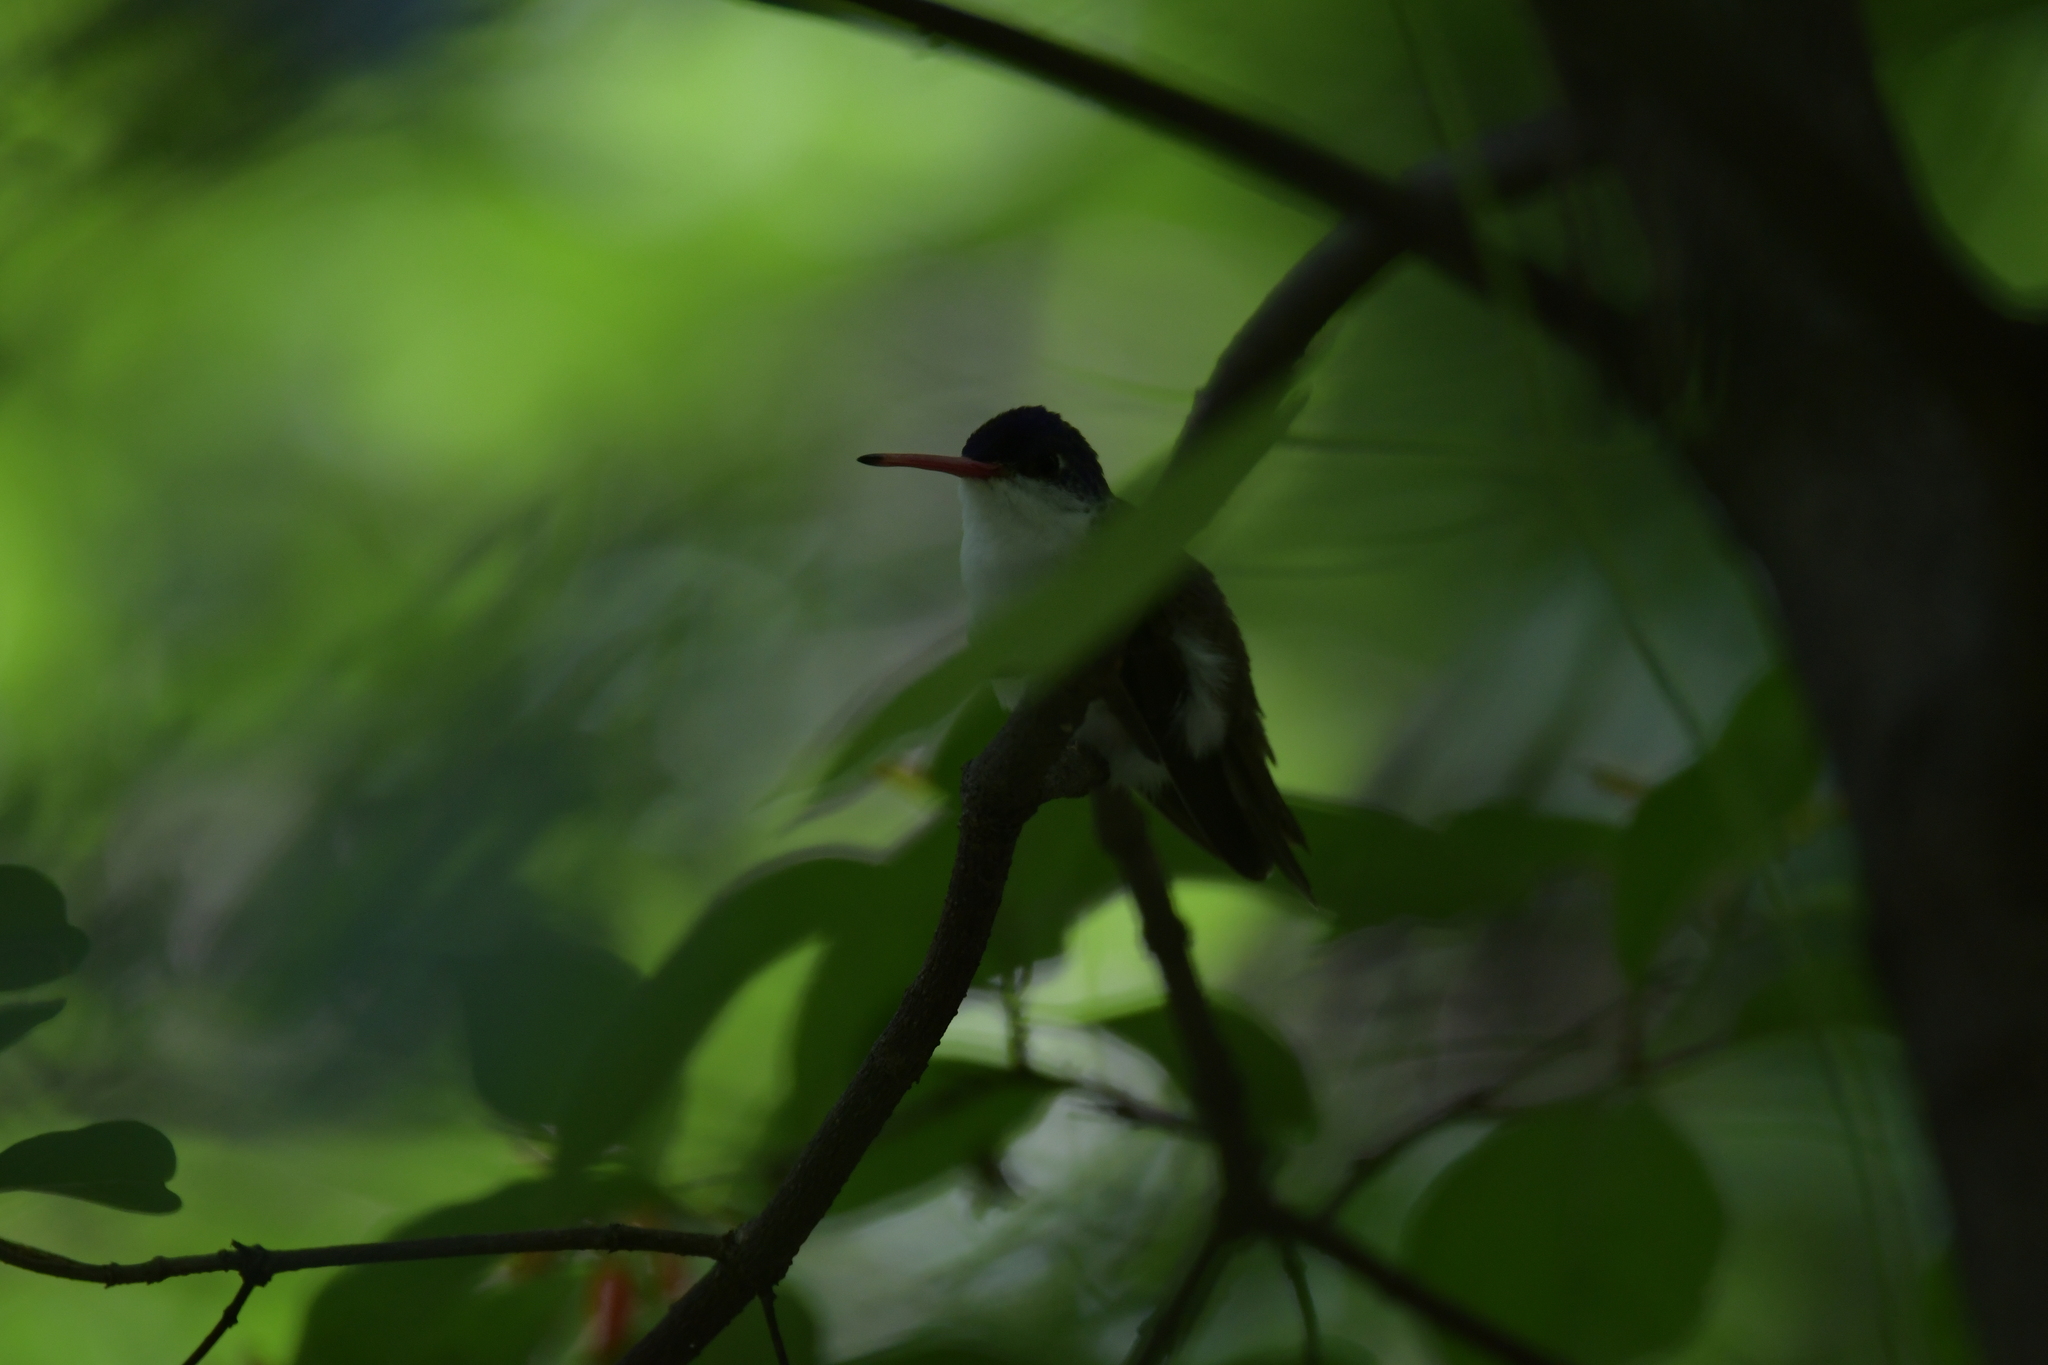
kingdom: Animalia
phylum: Chordata
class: Aves
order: Apodiformes
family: Trochilidae
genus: Leucolia
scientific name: Leucolia violiceps
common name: Violet-crowned hummingbird
